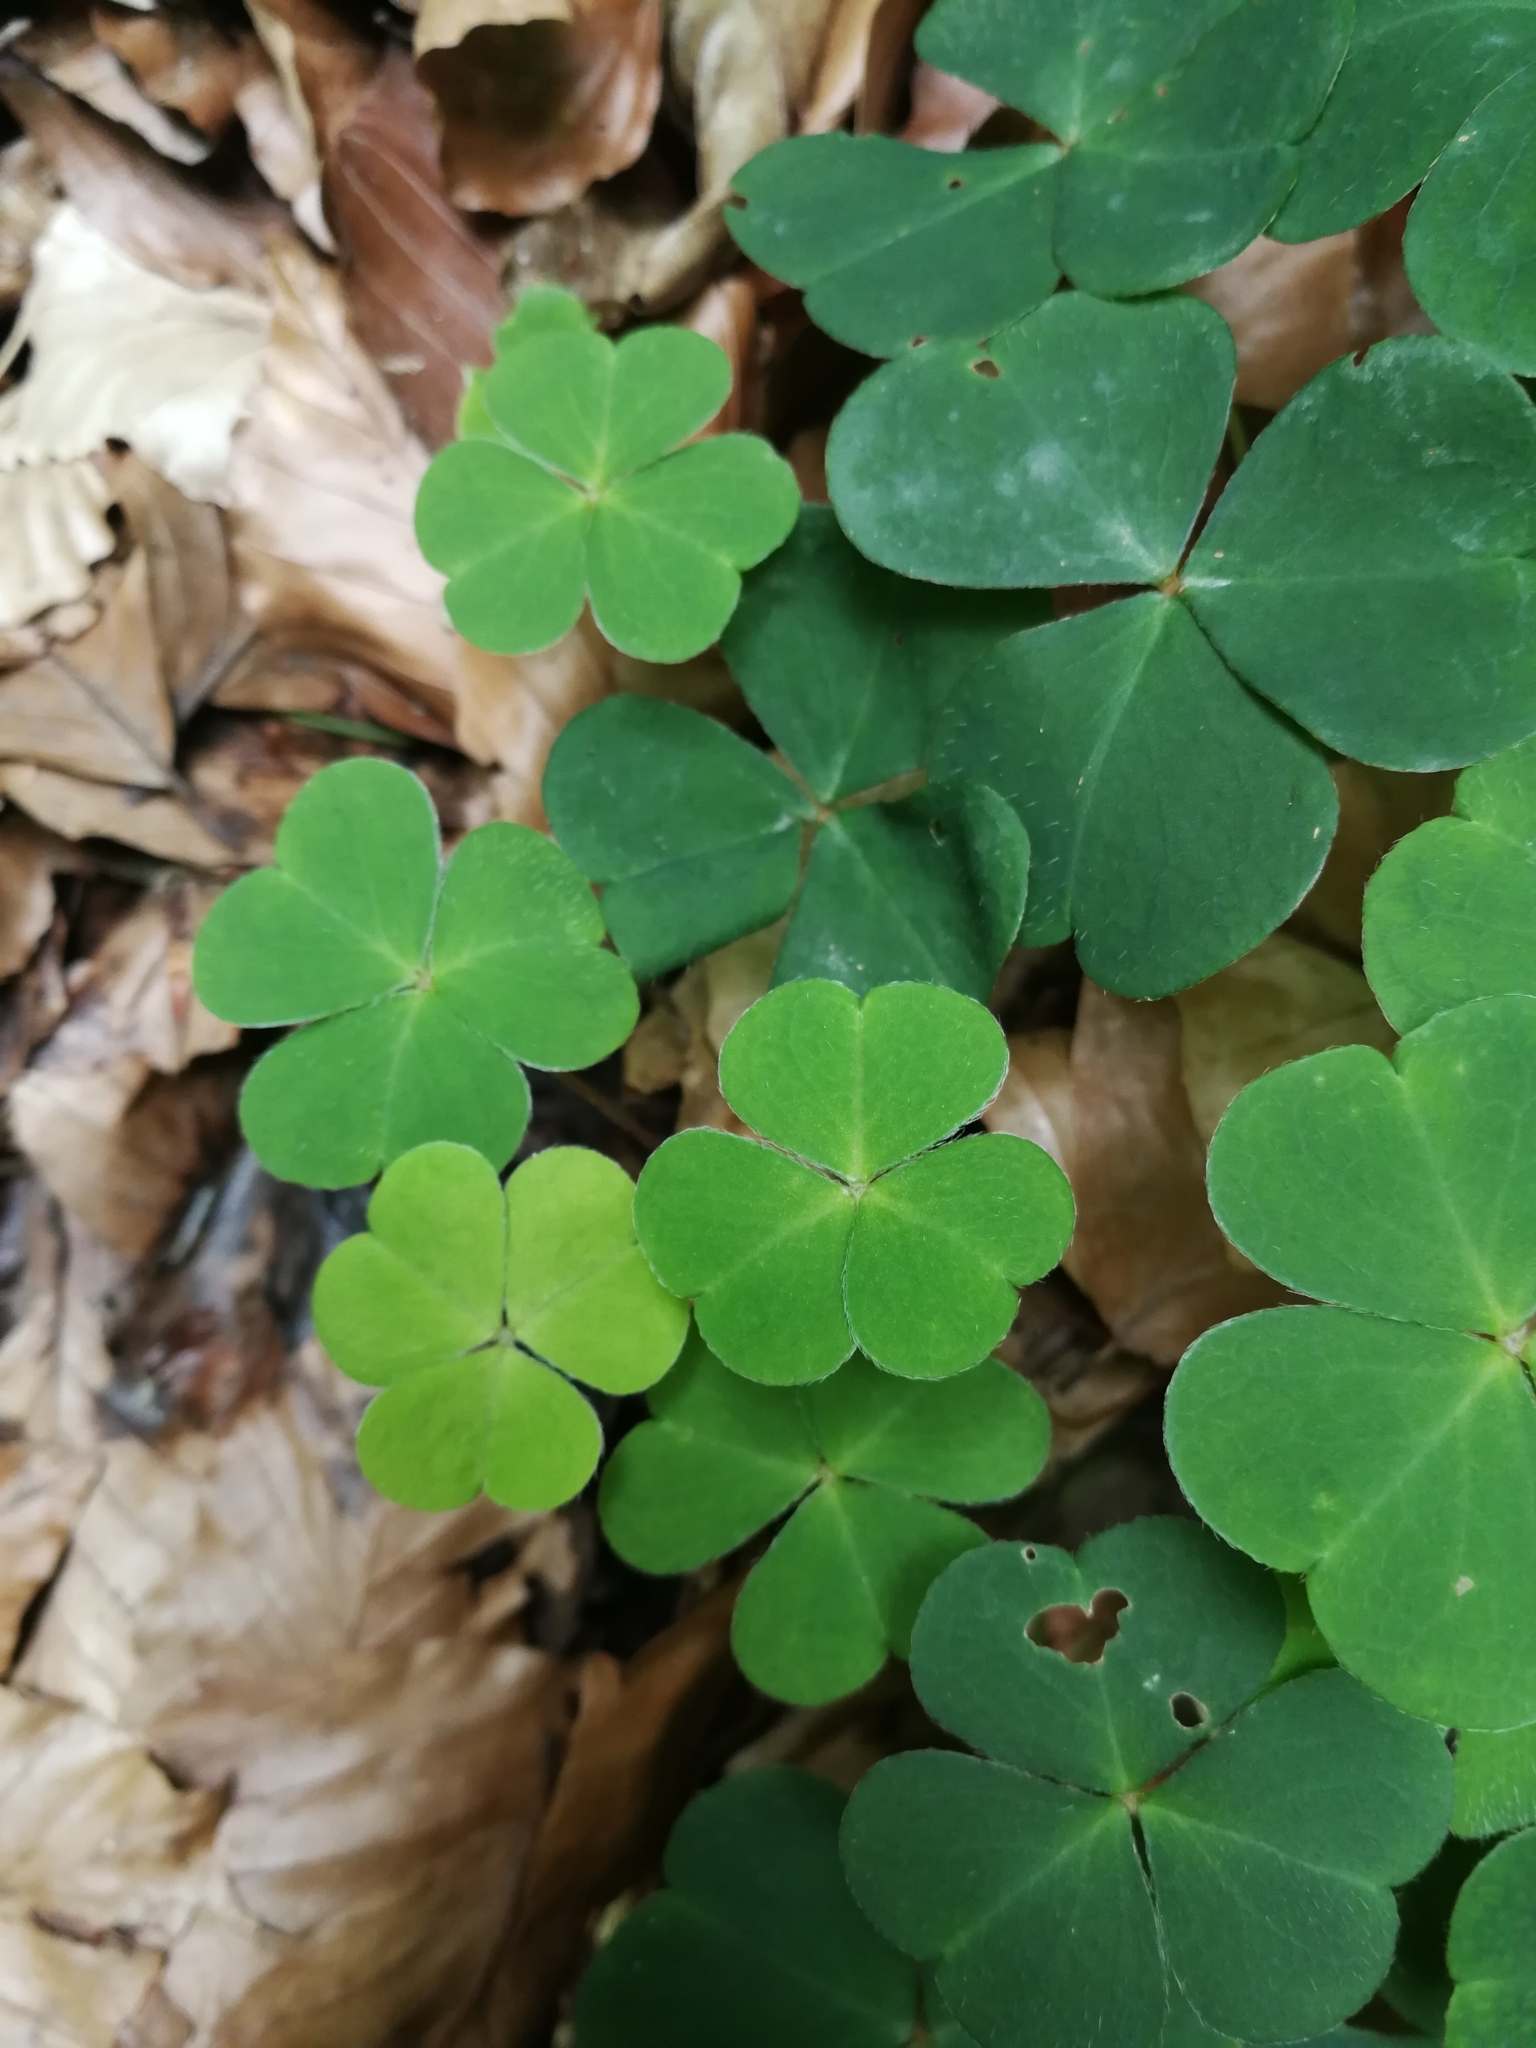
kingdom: Plantae
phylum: Tracheophyta
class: Magnoliopsida
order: Oxalidales
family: Oxalidaceae
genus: Oxalis
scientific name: Oxalis acetosella
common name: Wood-sorrel
